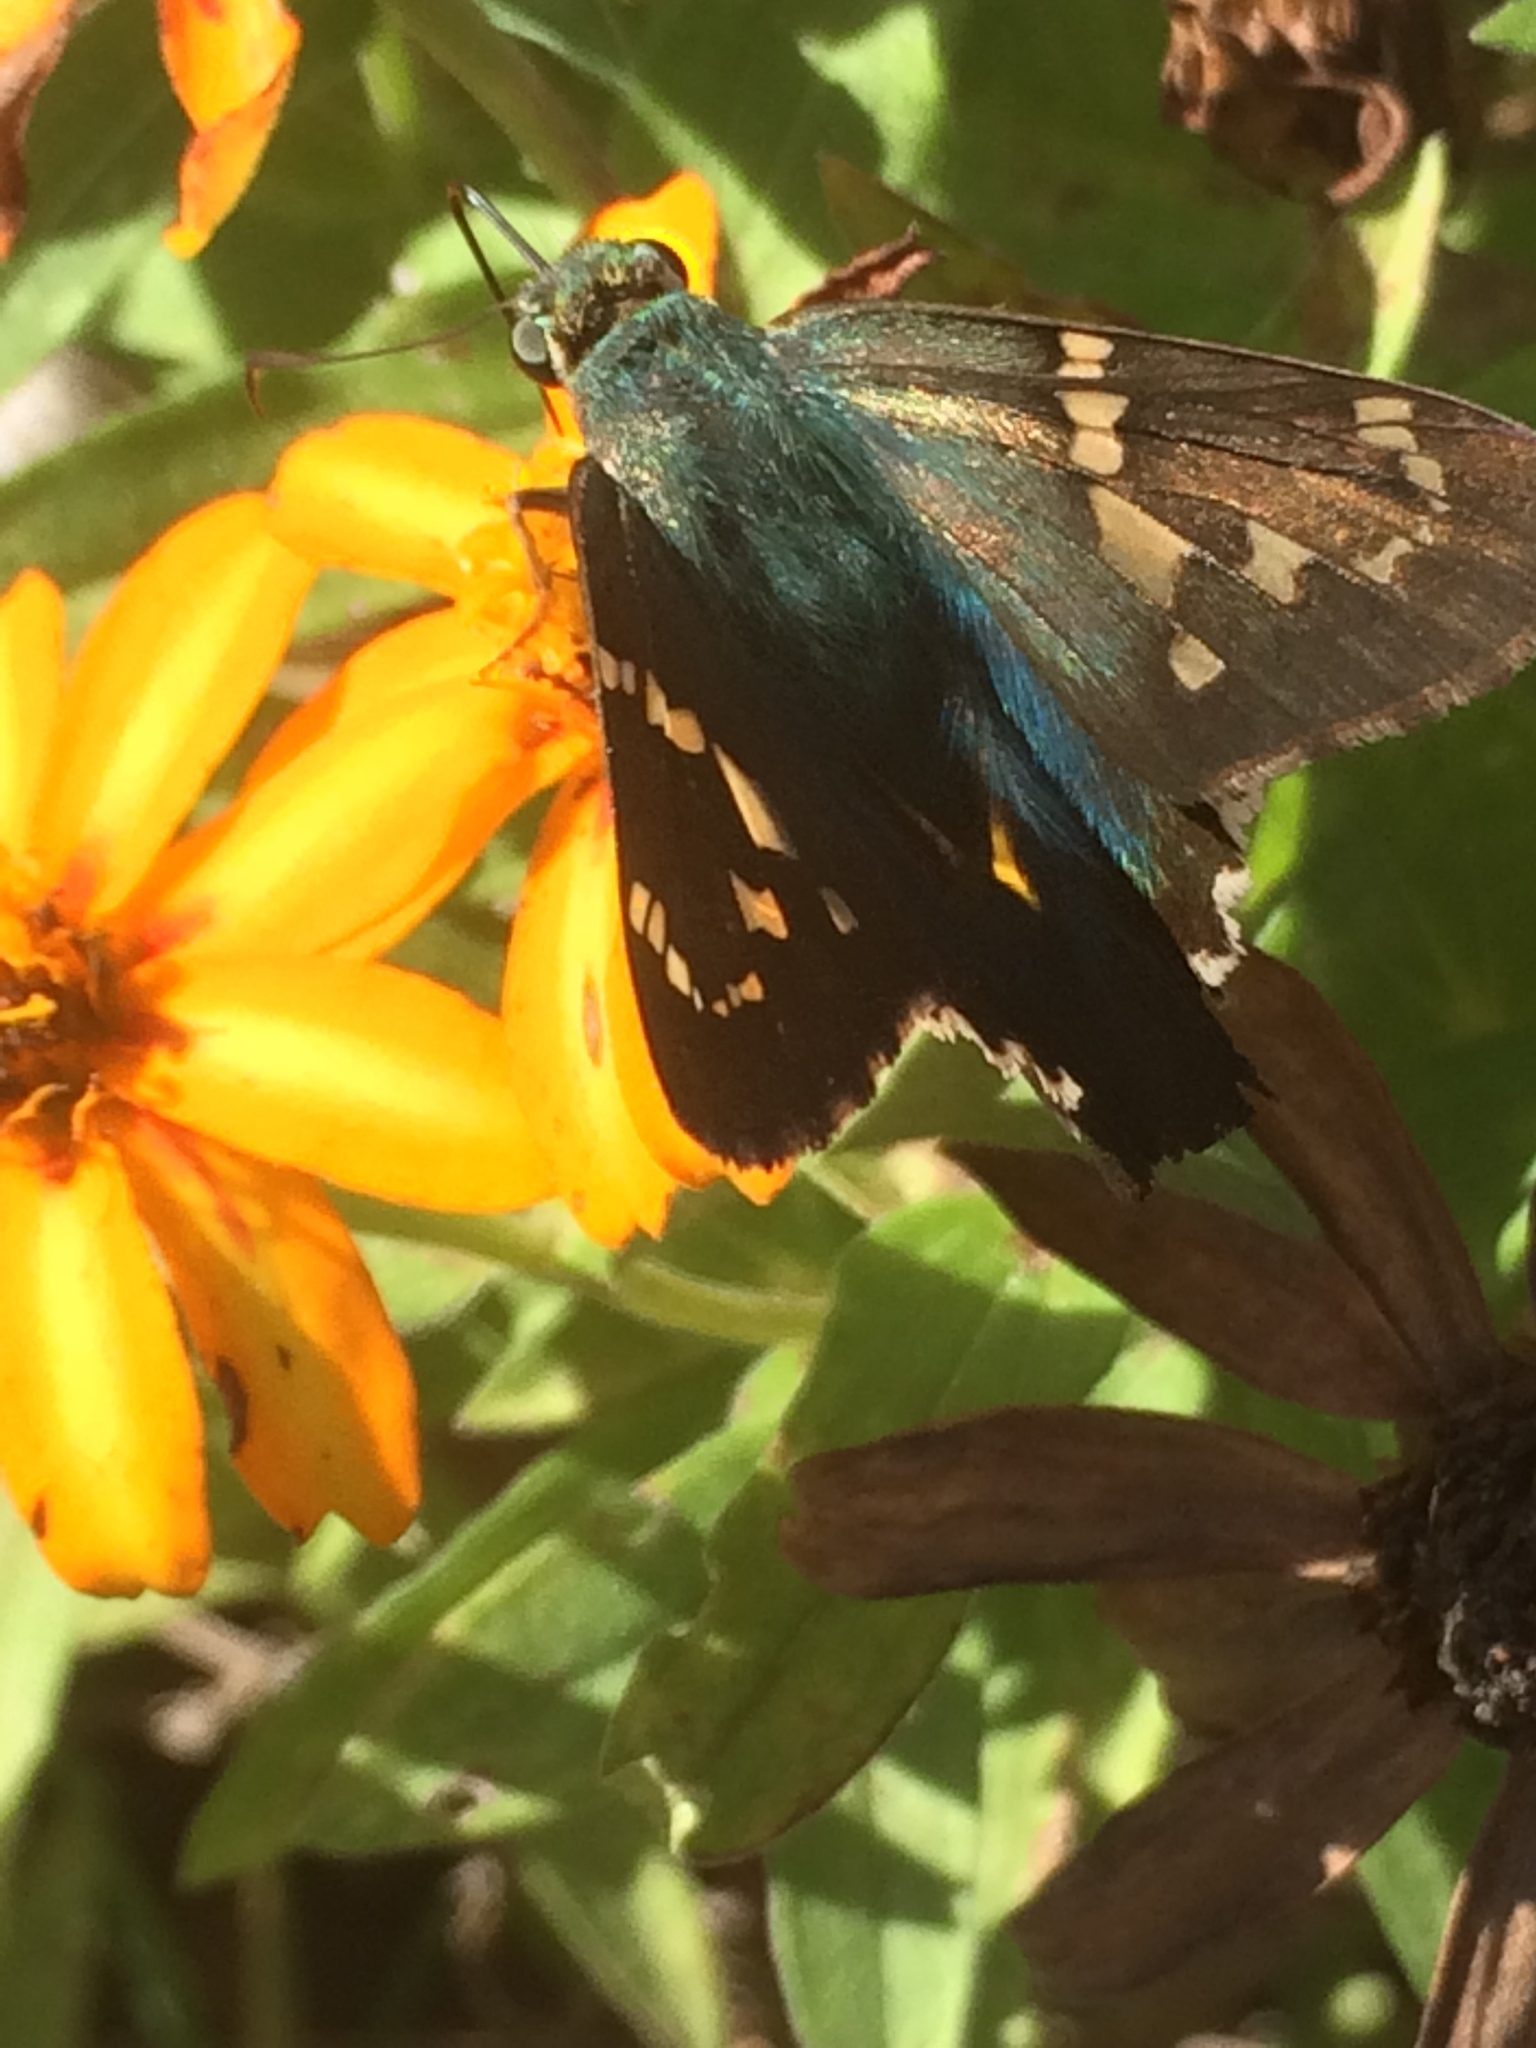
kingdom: Animalia
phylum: Arthropoda
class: Insecta
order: Lepidoptera
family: Hesperiidae
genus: Urbanus
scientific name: Urbanus proteus
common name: Long-tailed skipper
